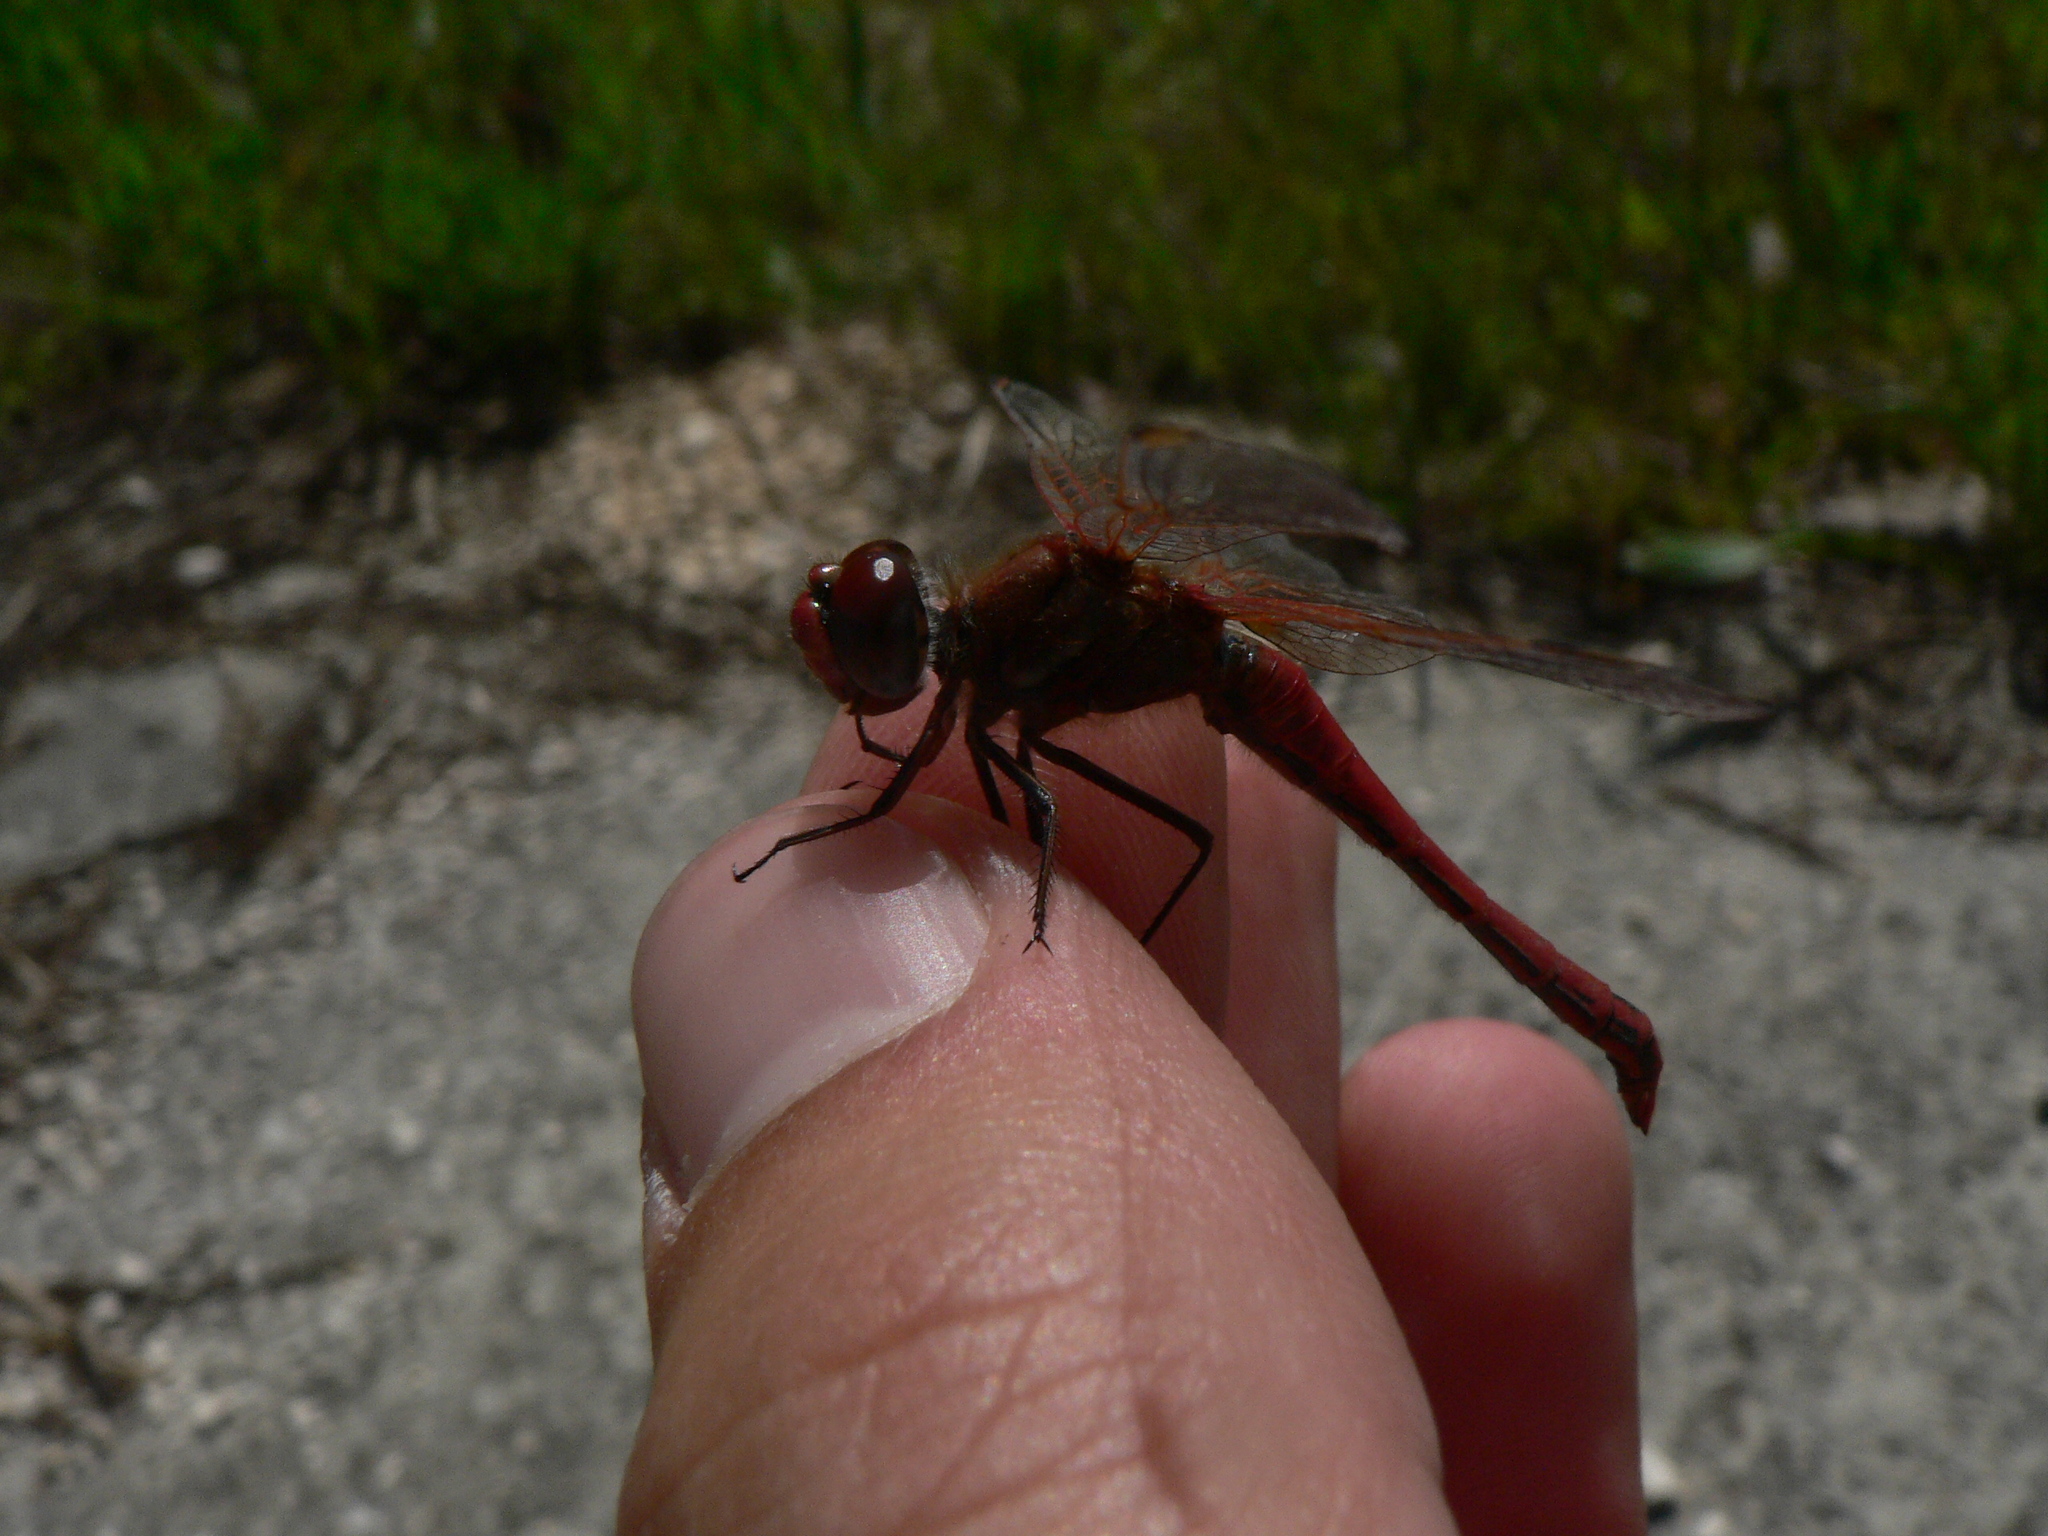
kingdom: Animalia
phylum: Arthropoda
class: Insecta
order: Odonata
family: Libellulidae
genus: Sympetrum
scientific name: Sympetrum fonscolombii
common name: Red-veined darter
